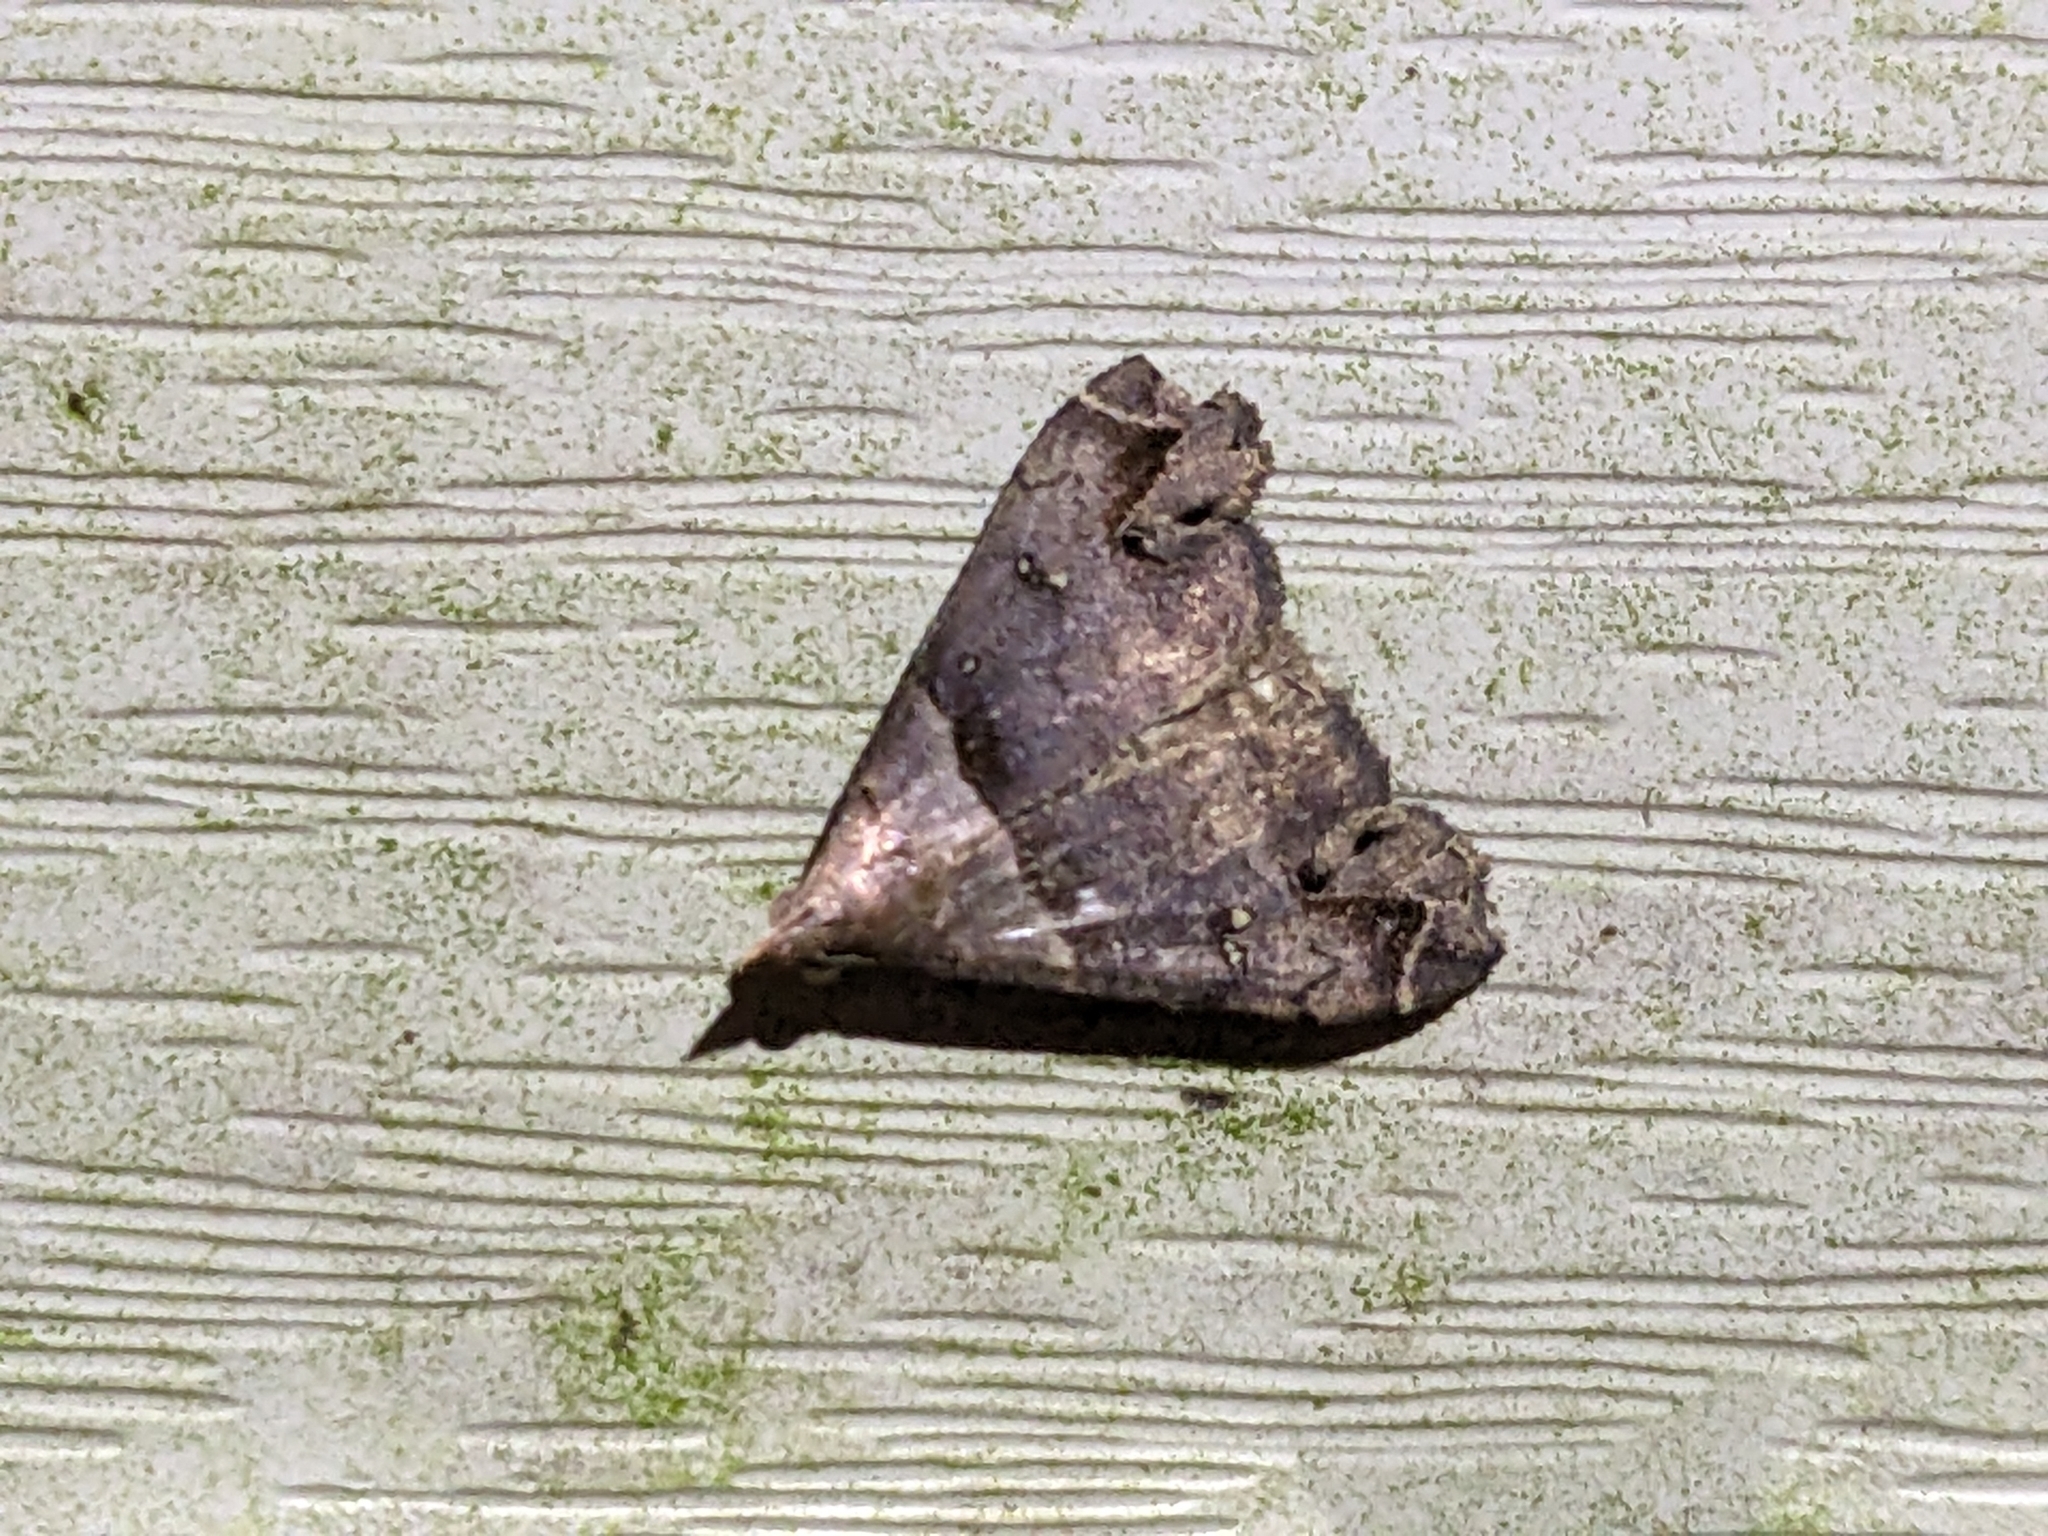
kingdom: Animalia
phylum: Arthropoda
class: Insecta
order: Lepidoptera
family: Erebidae
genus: Lascoria
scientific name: Lascoria ambigualis
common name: Ambiguous moth
